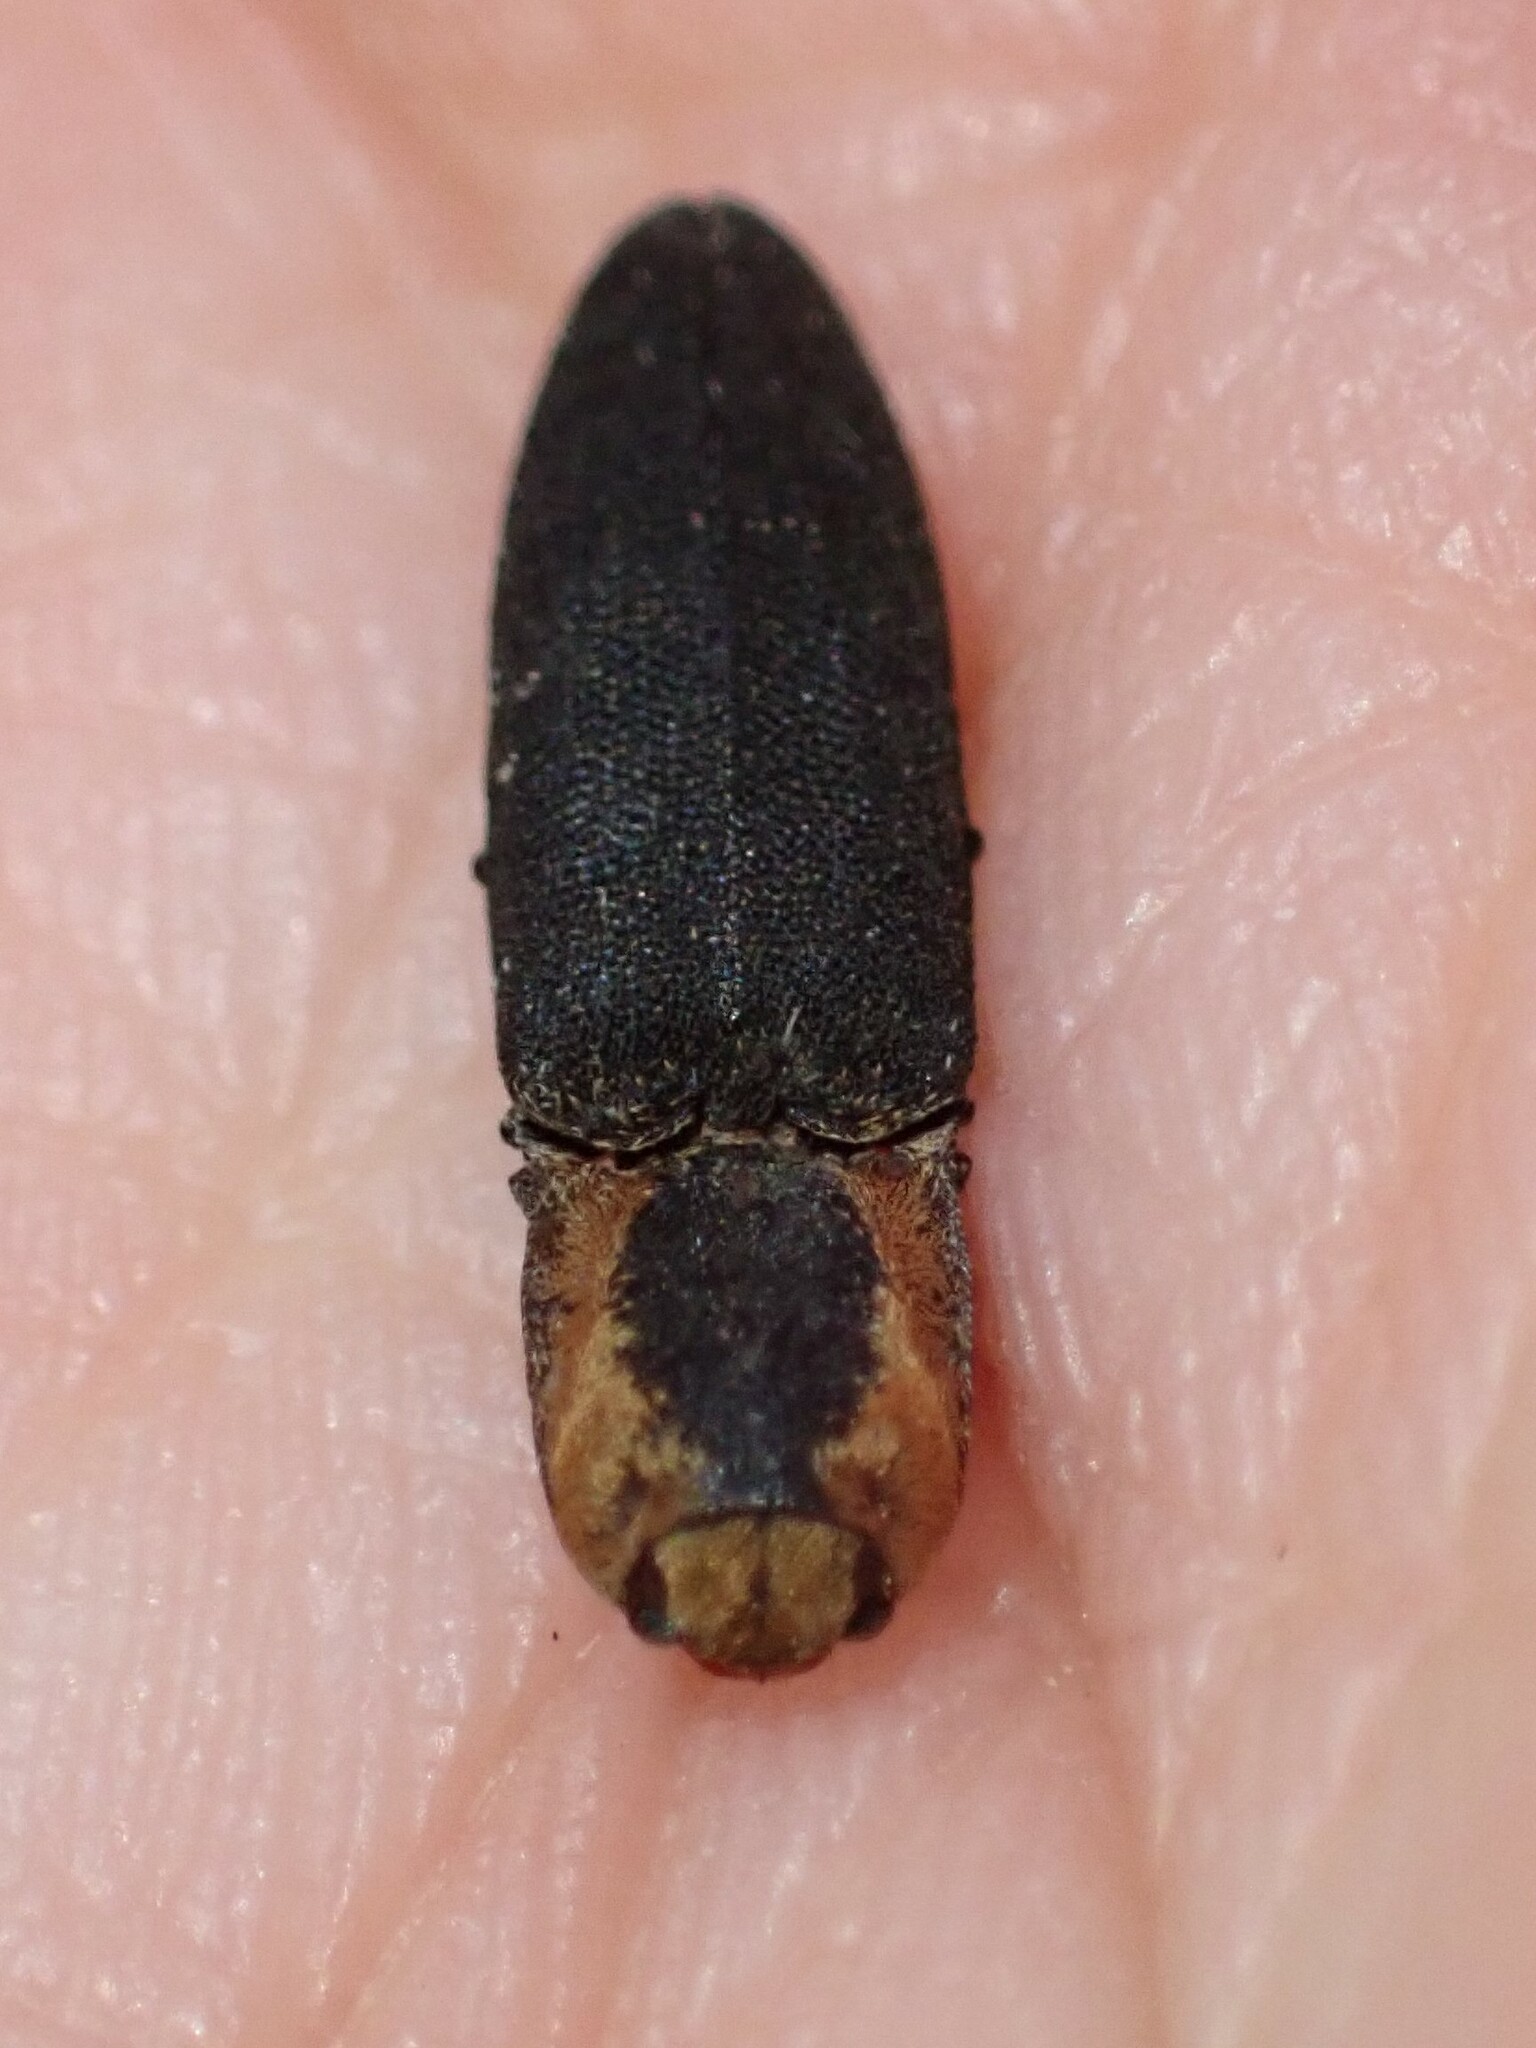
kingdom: Animalia
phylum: Arthropoda
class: Insecta
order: Coleoptera
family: Elateridae
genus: Lacon
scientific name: Lacon discoideus
